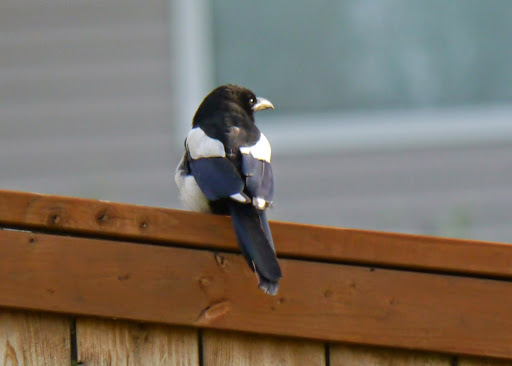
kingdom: Animalia
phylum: Chordata
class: Aves
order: Passeriformes
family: Corvidae
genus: Pica
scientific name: Pica hudsonia
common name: Black-billed magpie
